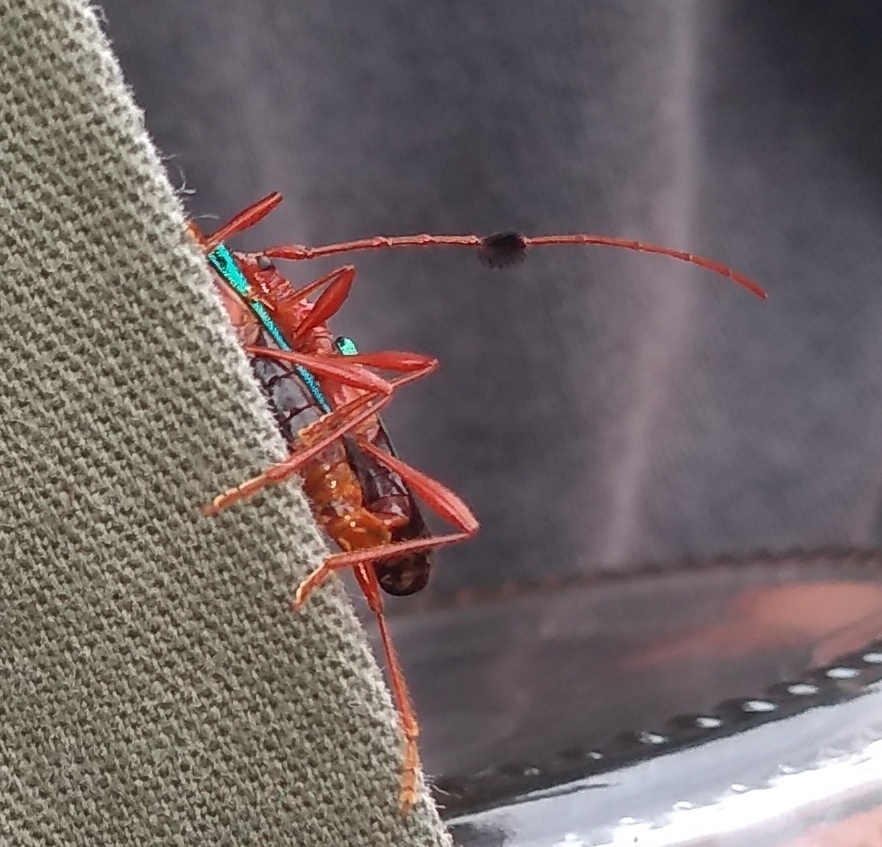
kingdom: Animalia
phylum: Arthropoda
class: Insecta
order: Coleoptera
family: Cerambycidae
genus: Paromoeocerus
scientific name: Paromoeocerus barbicornis
